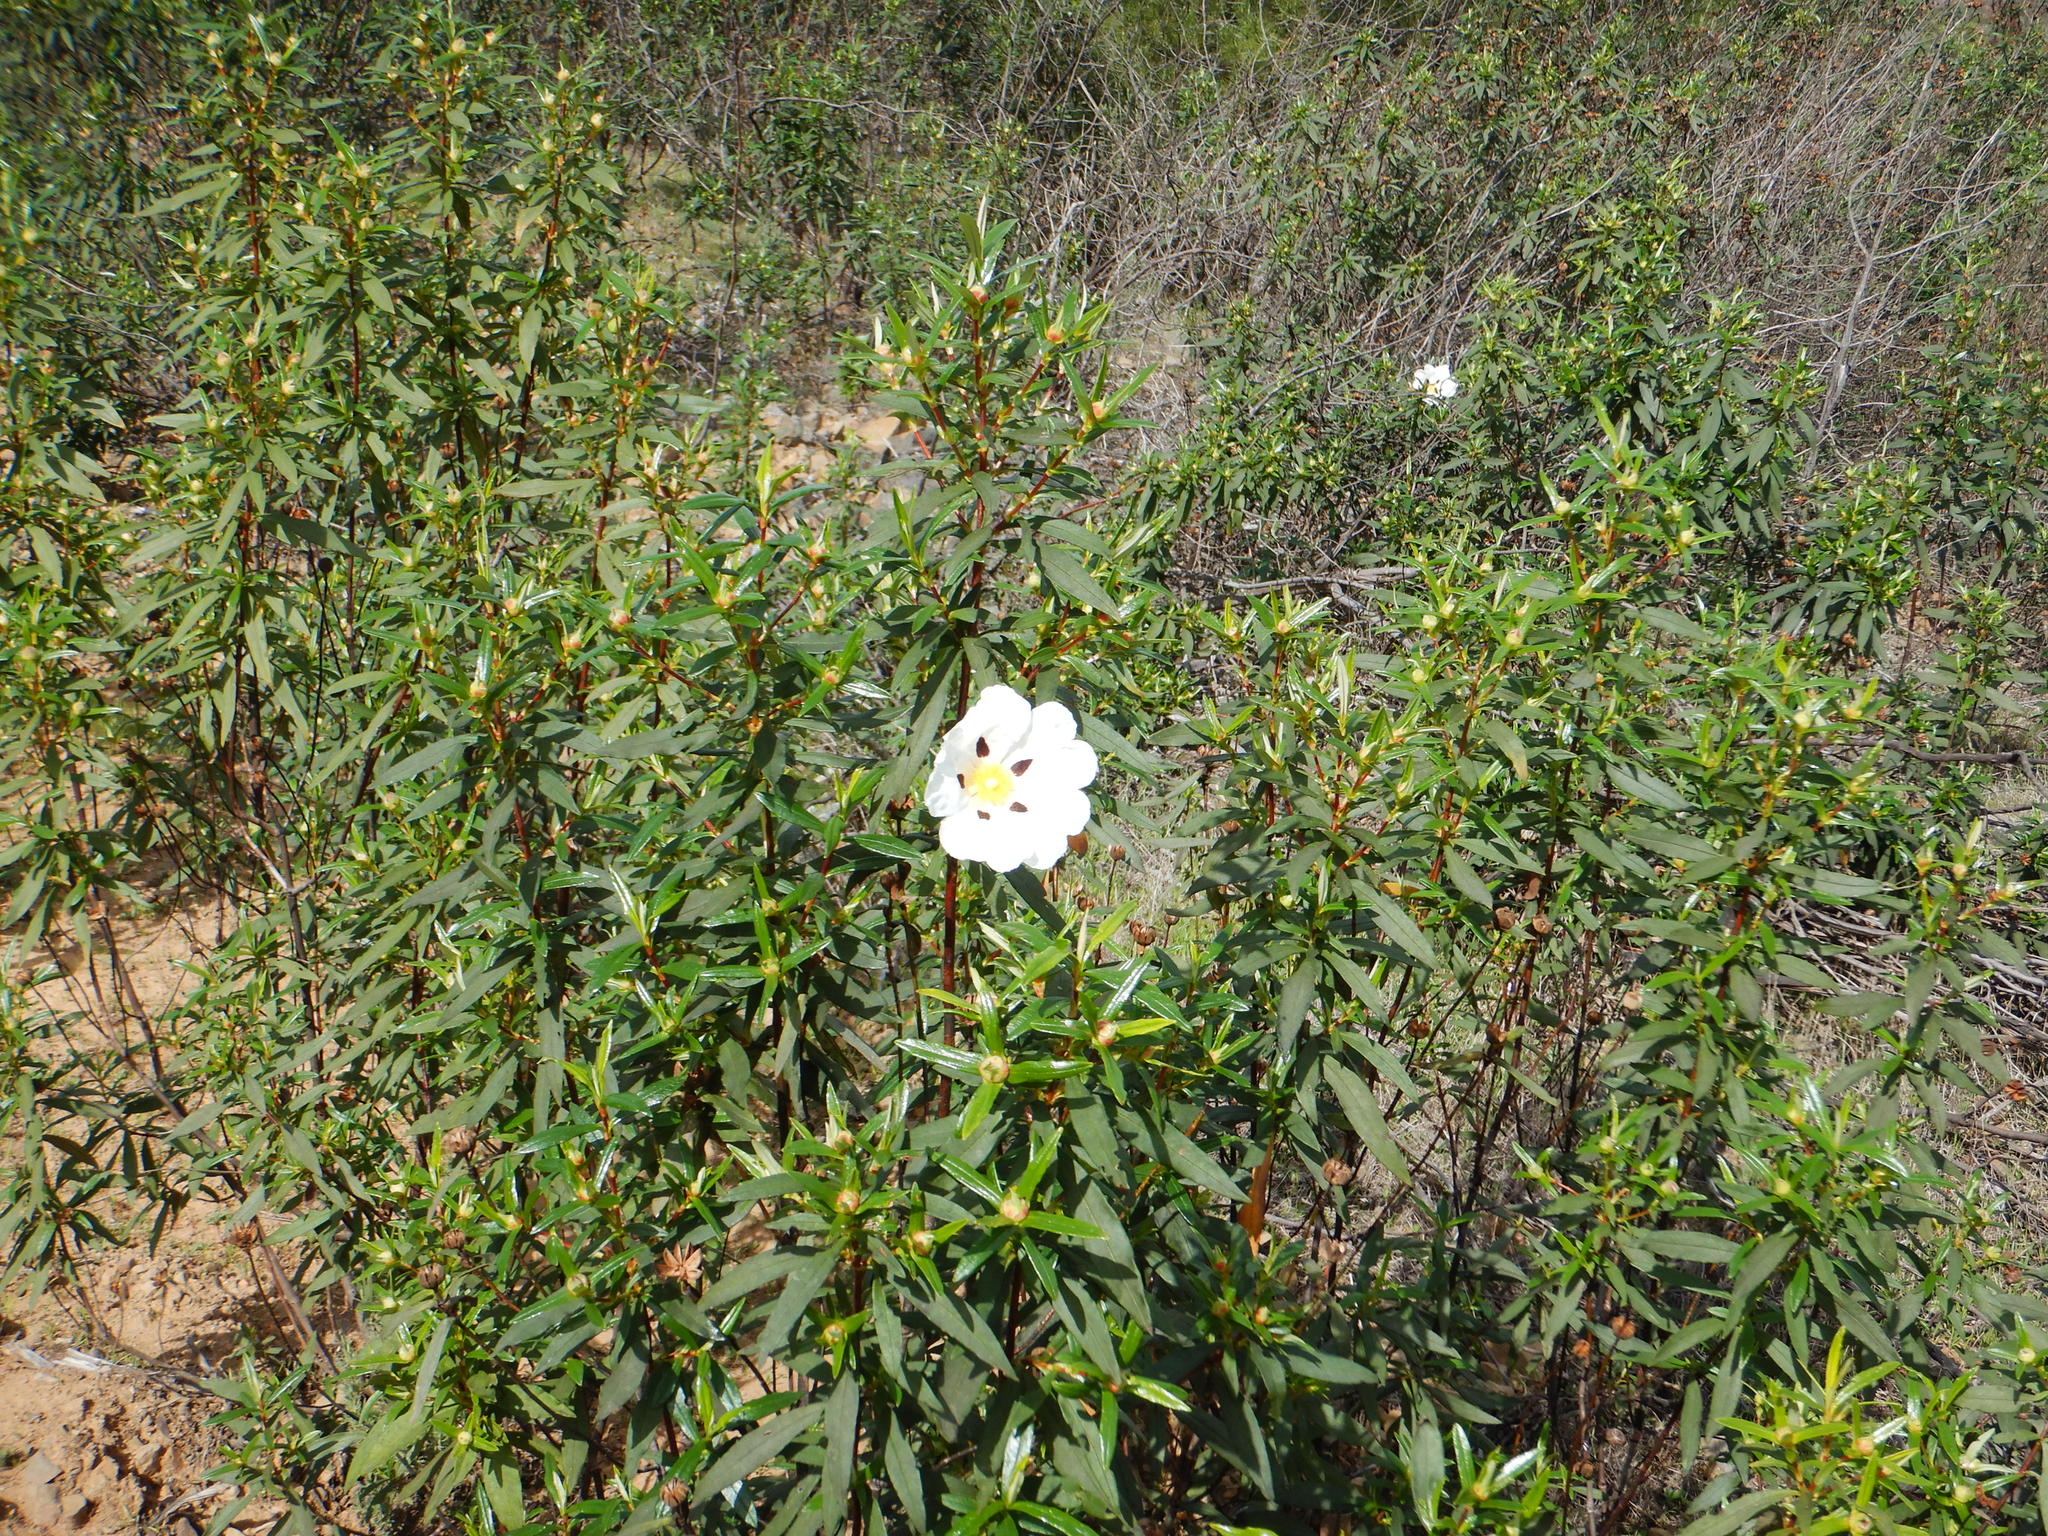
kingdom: Plantae
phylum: Tracheophyta
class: Magnoliopsida
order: Malvales
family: Cistaceae
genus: Cistus
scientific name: Cistus ladanifer
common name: Common gum cistus
